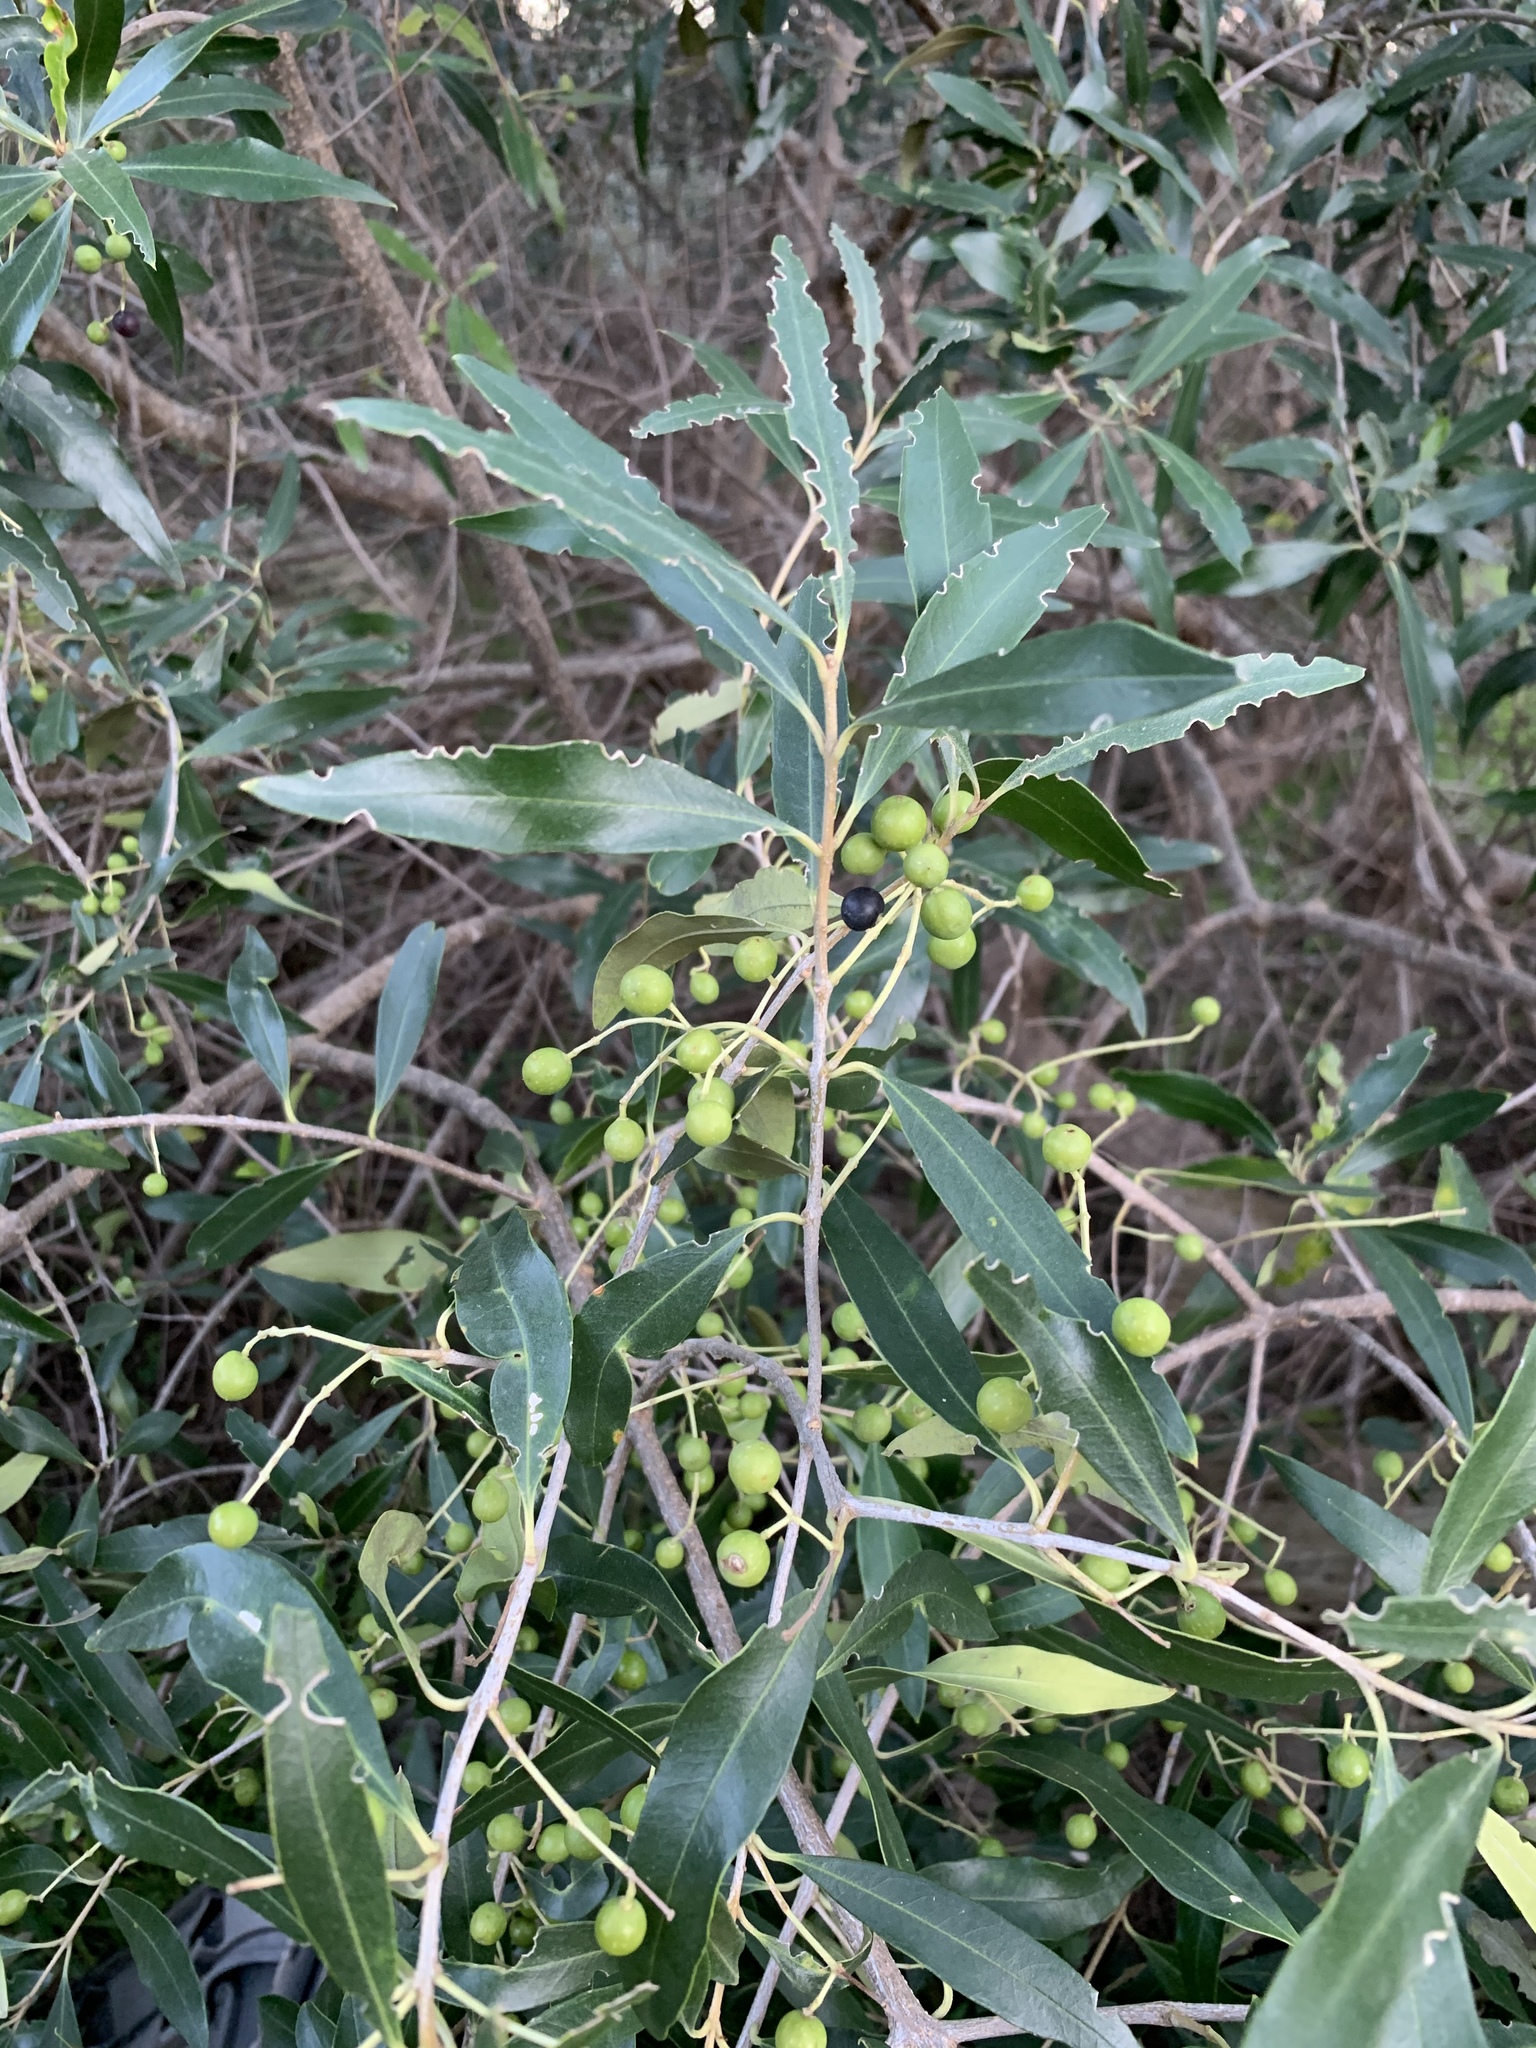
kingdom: Plantae
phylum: Tracheophyta
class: Magnoliopsida
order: Lamiales
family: Oleaceae
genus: Olea
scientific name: Olea europaea
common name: Olive
